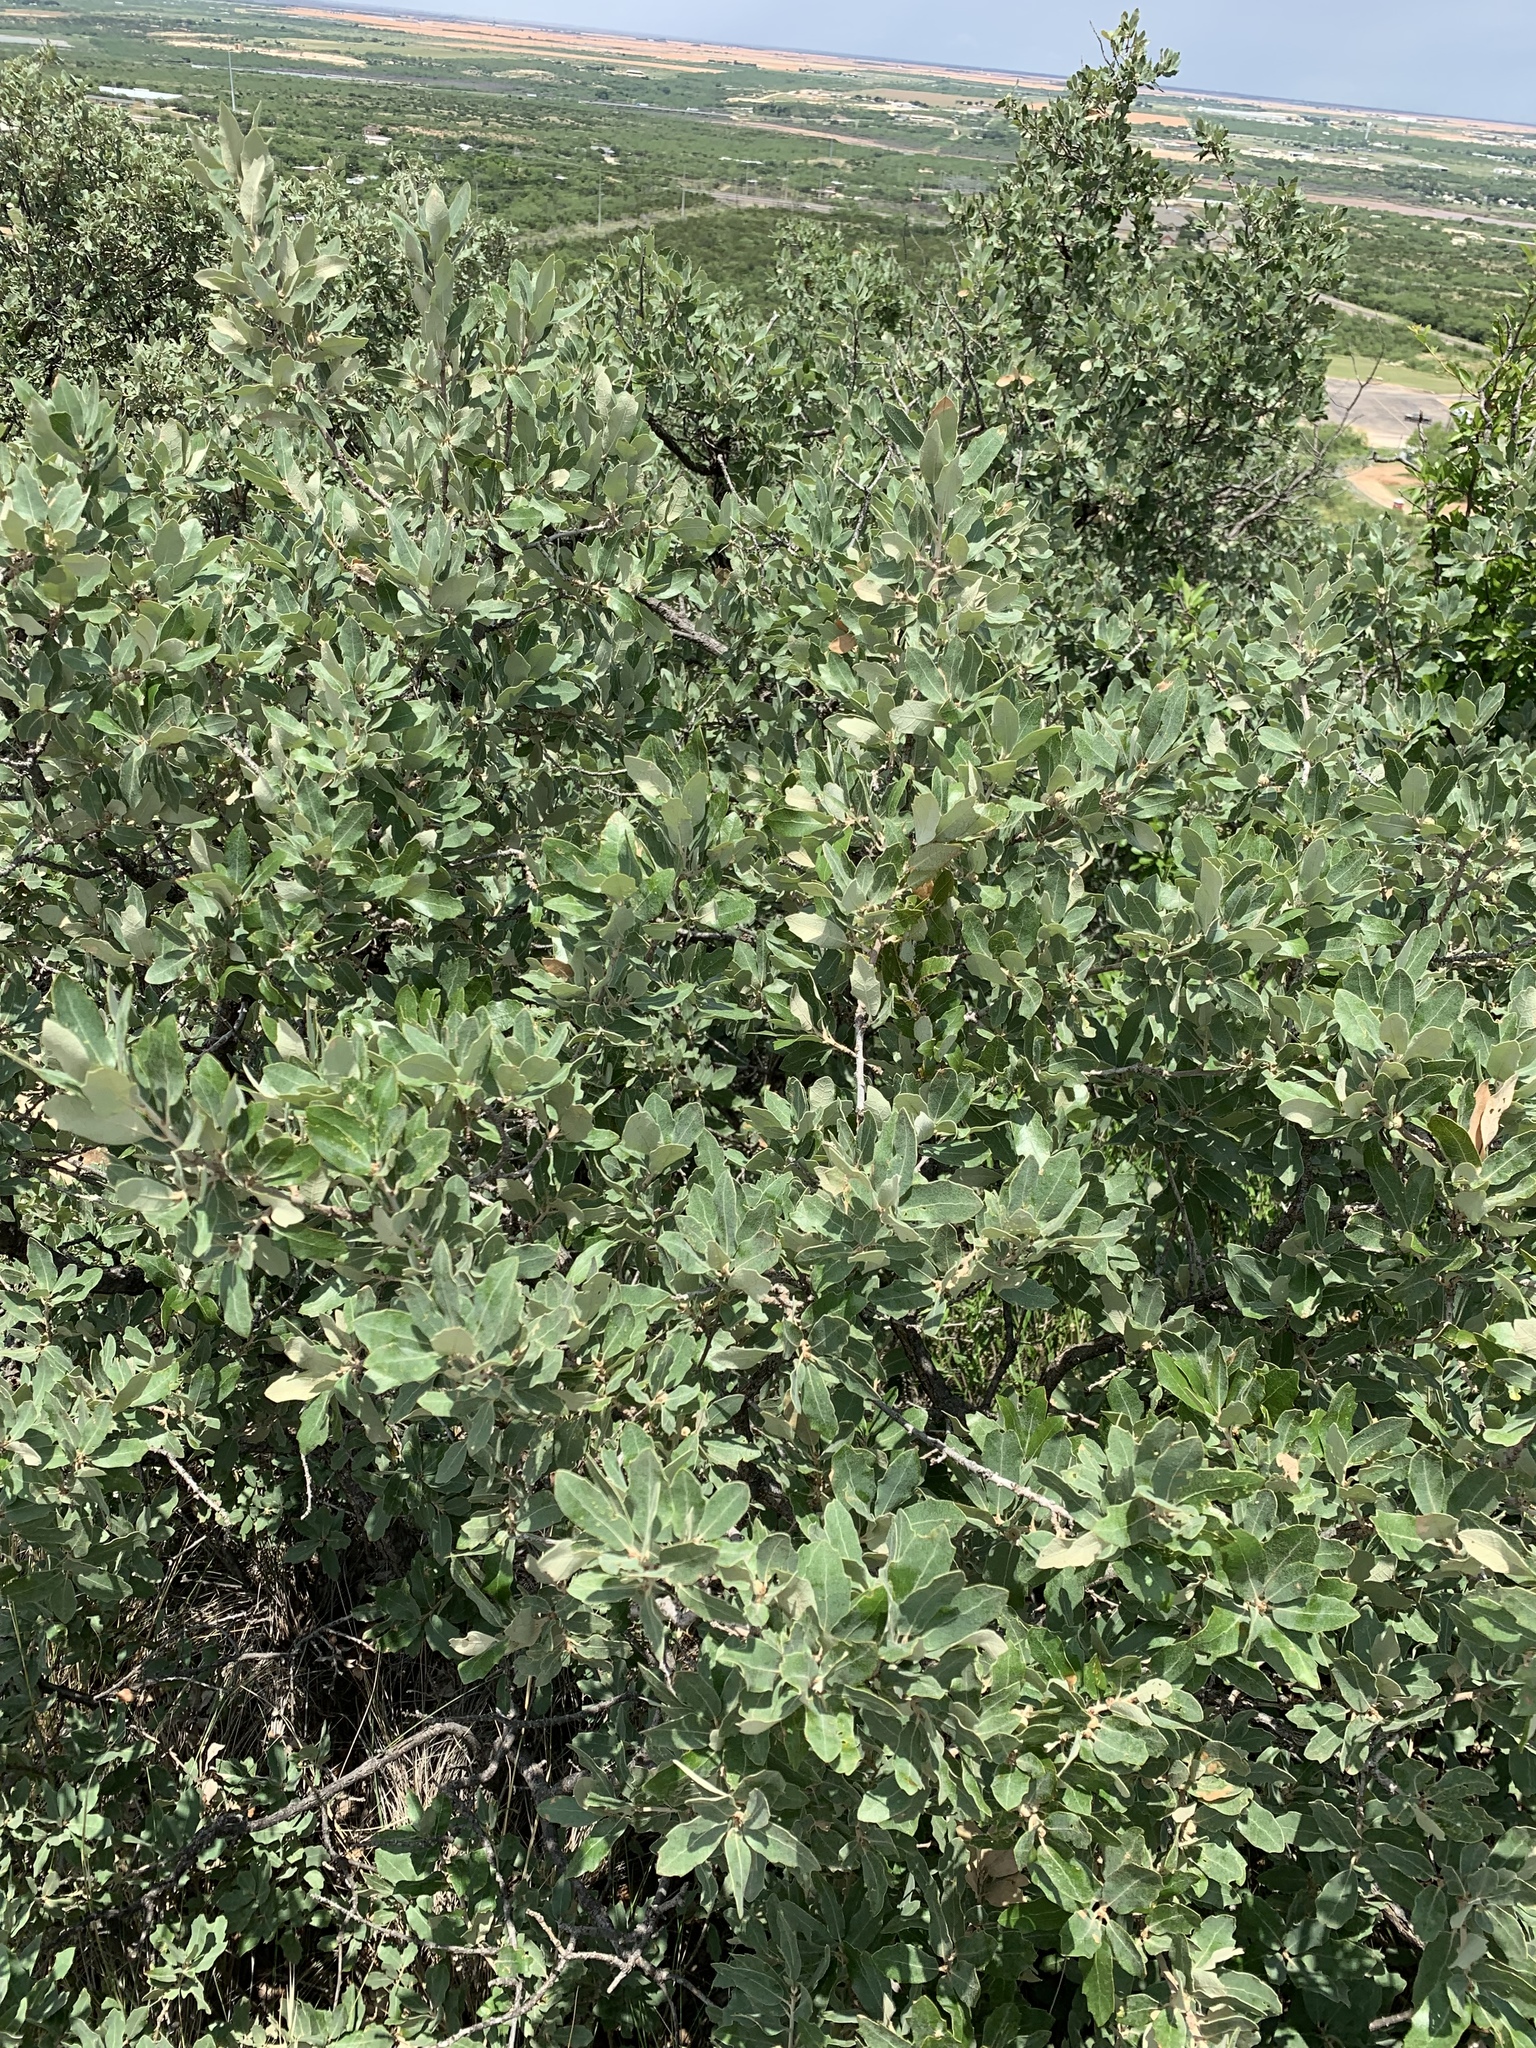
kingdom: Plantae
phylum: Tracheophyta
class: Magnoliopsida
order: Fagales
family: Fagaceae
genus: Quercus
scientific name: Quercus mohriana
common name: Mohr oak
